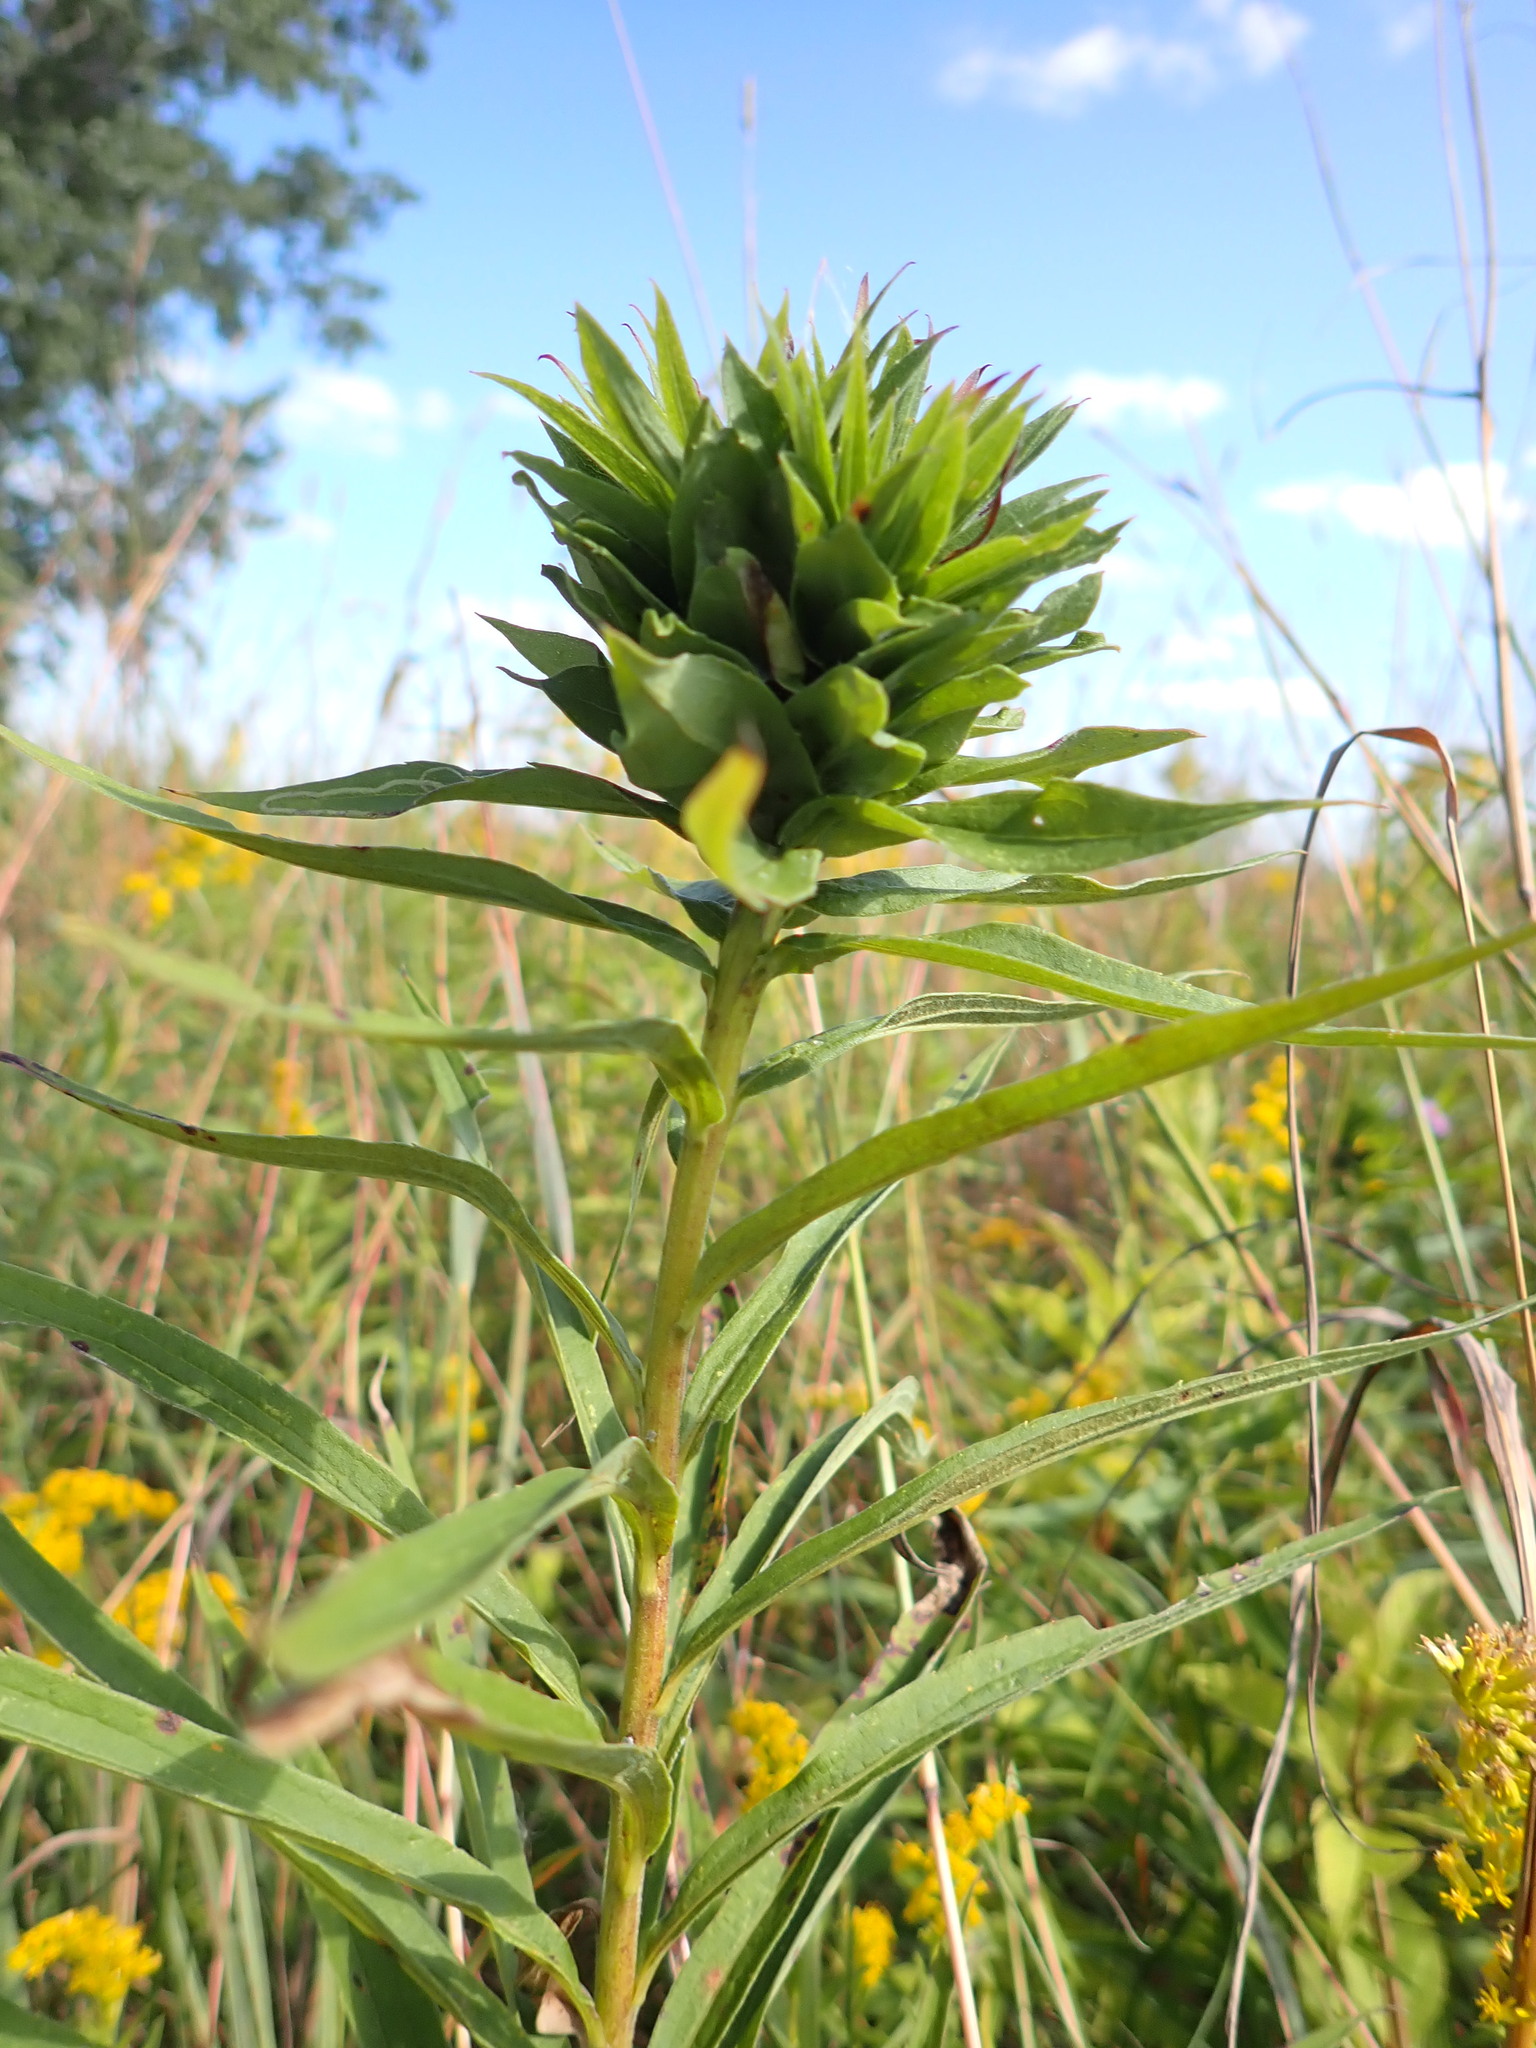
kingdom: Animalia
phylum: Arthropoda
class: Insecta
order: Diptera
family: Cecidomyiidae
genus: Rhopalomyia
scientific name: Rhopalomyia solidaginis
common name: Goldenrod bunch gall midge
